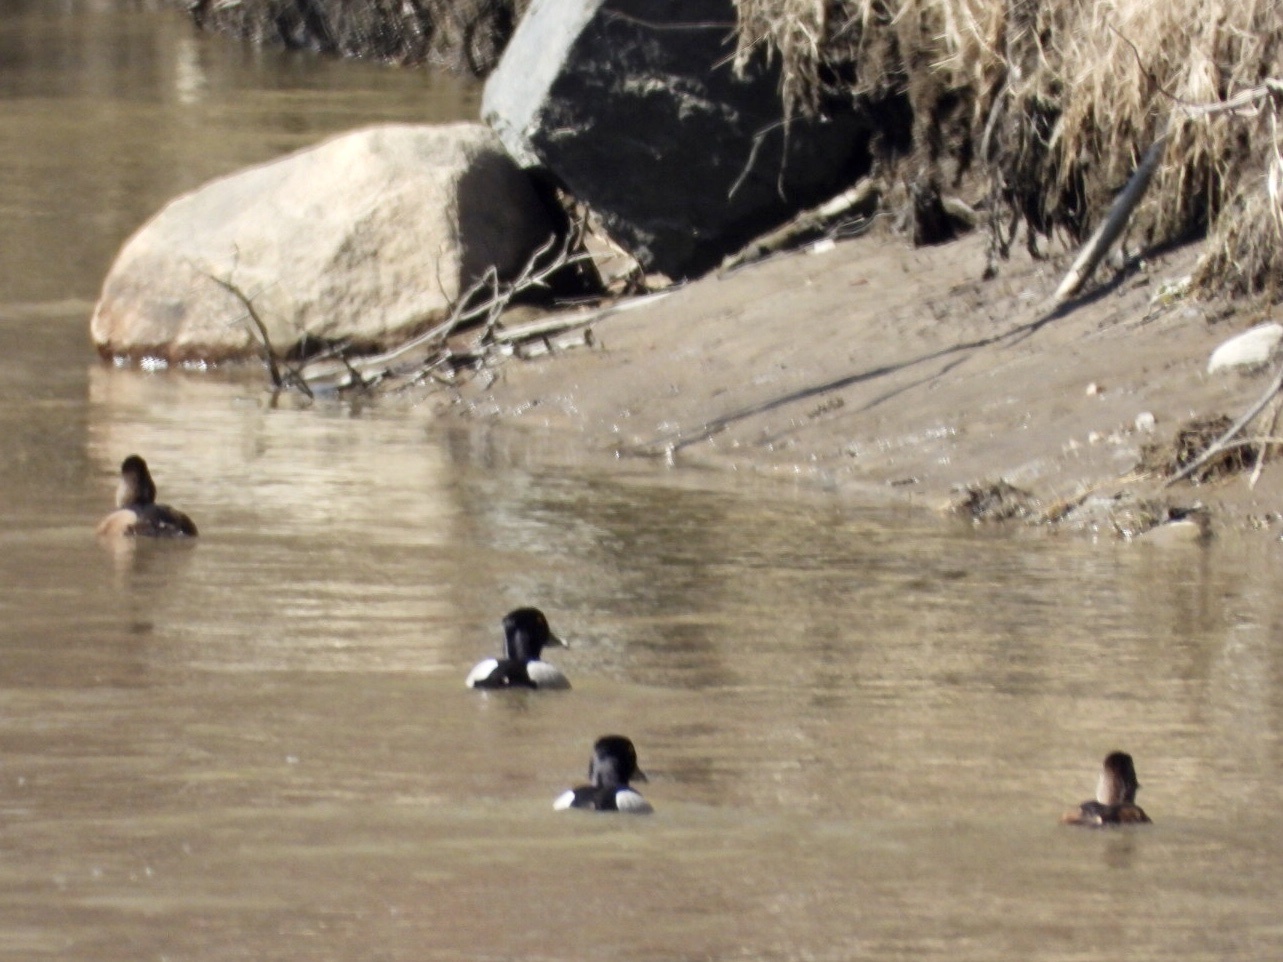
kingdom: Animalia
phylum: Chordata
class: Aves
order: Anseriformes
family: Anatidae
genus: Aythya
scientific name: Aythya collaris
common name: Ring-necked duck
